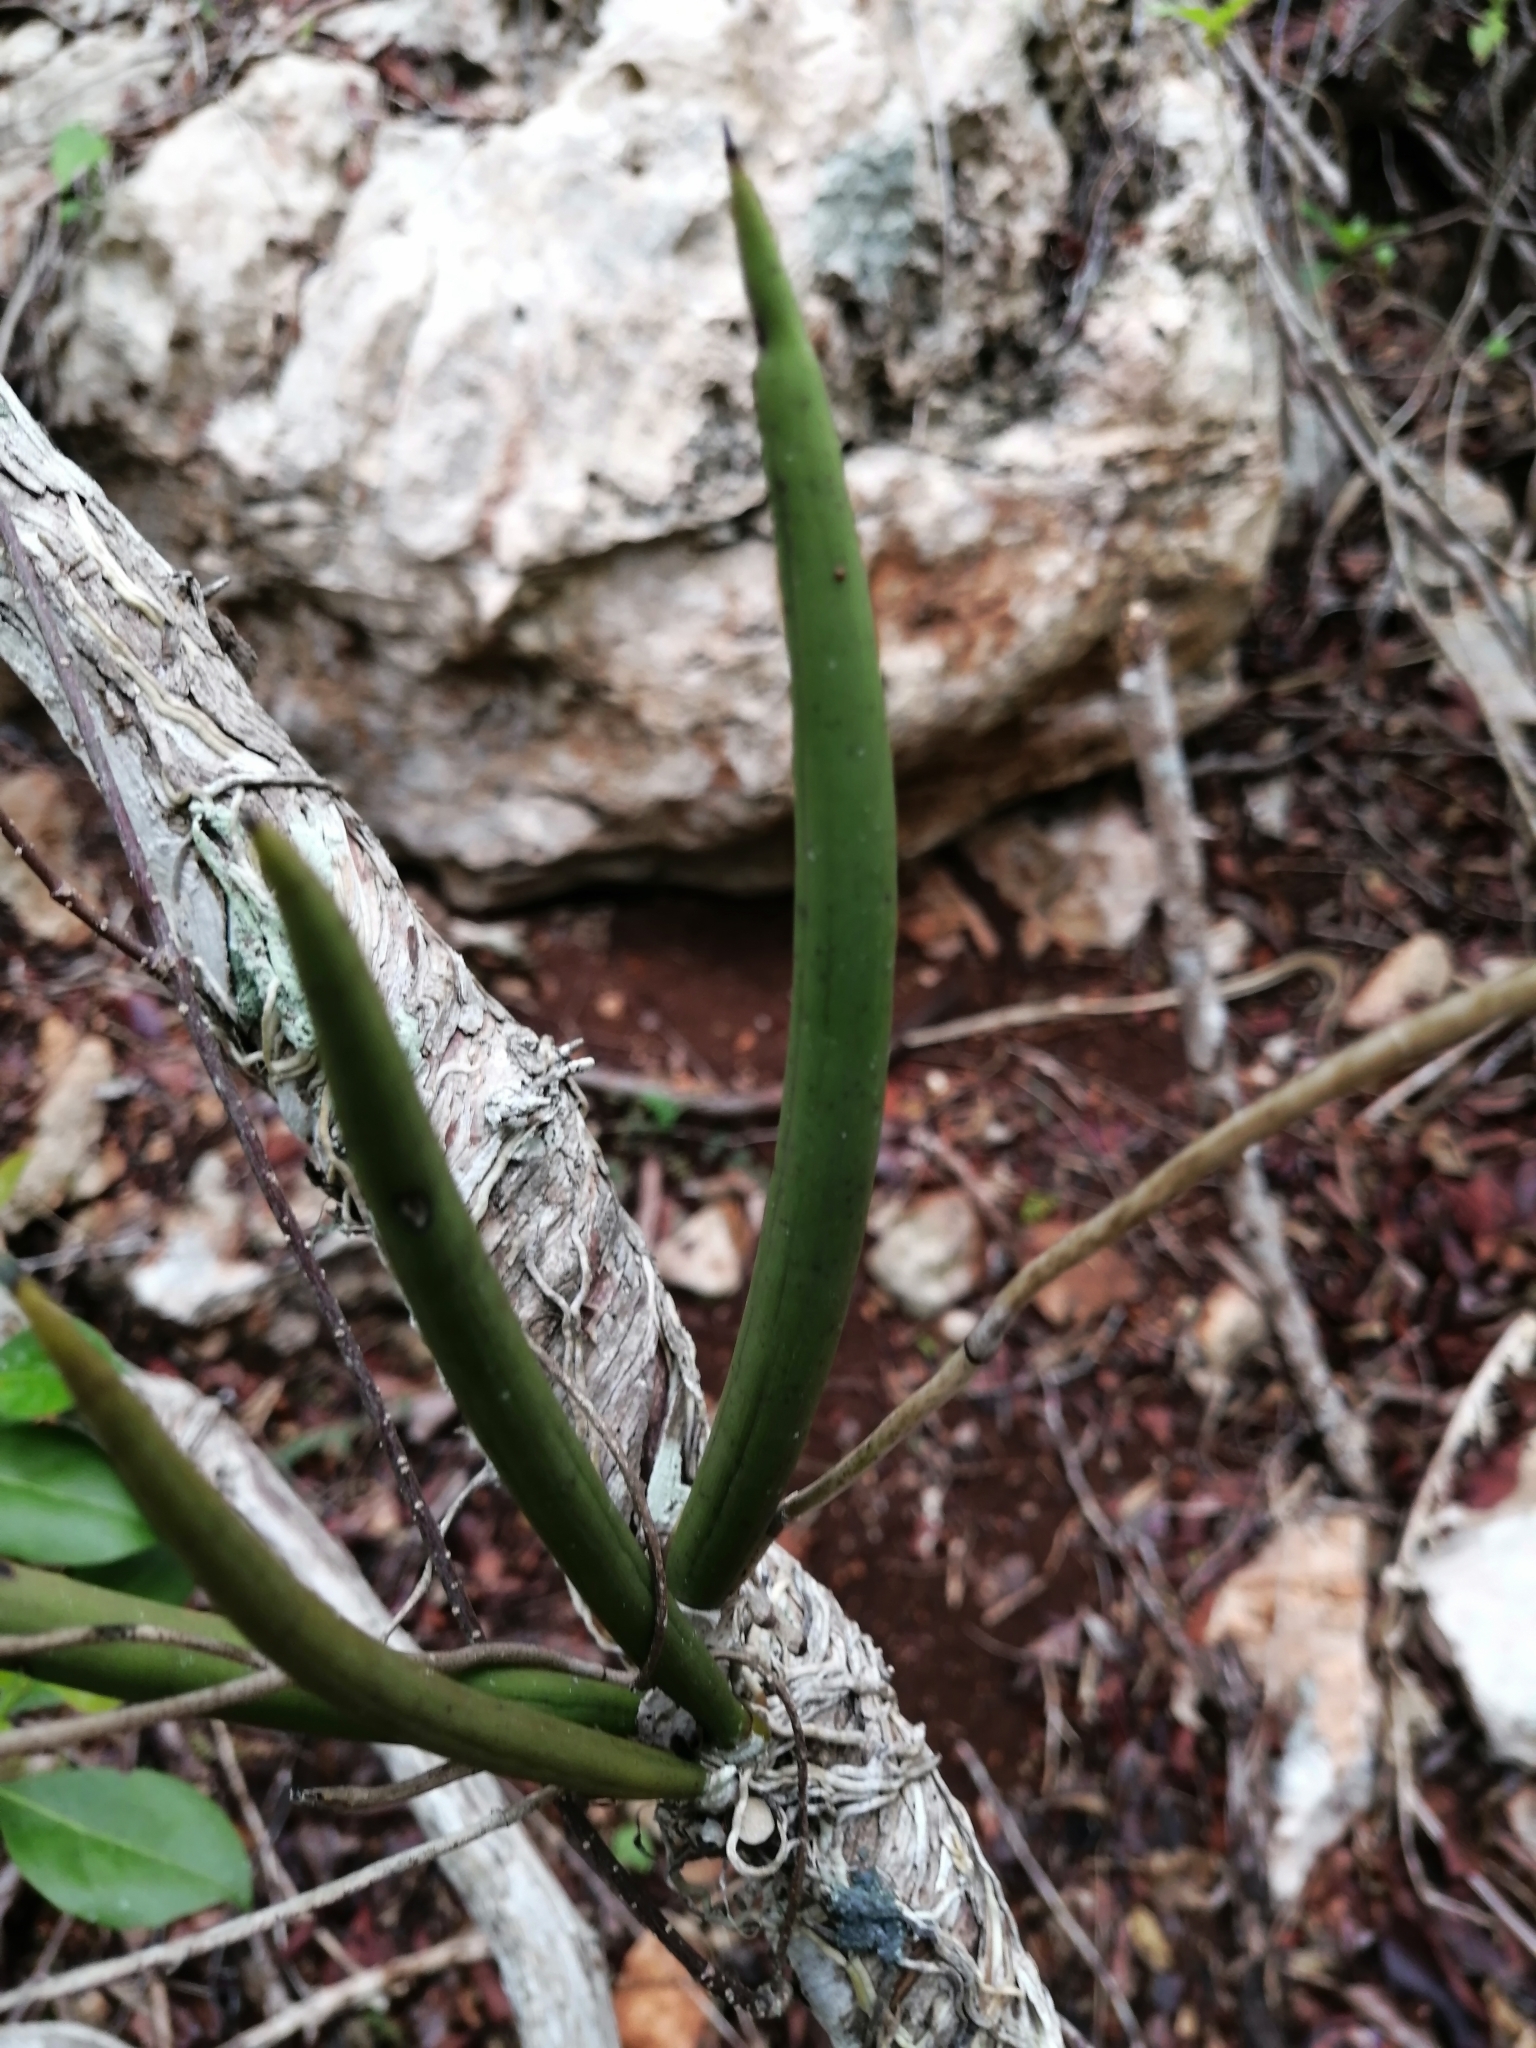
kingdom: Plantae
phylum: Tracheophyta
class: Liliopsida
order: Asparagales
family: Orchidaceae
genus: Trichocentrum
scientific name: Trichocentrum cebolleta
